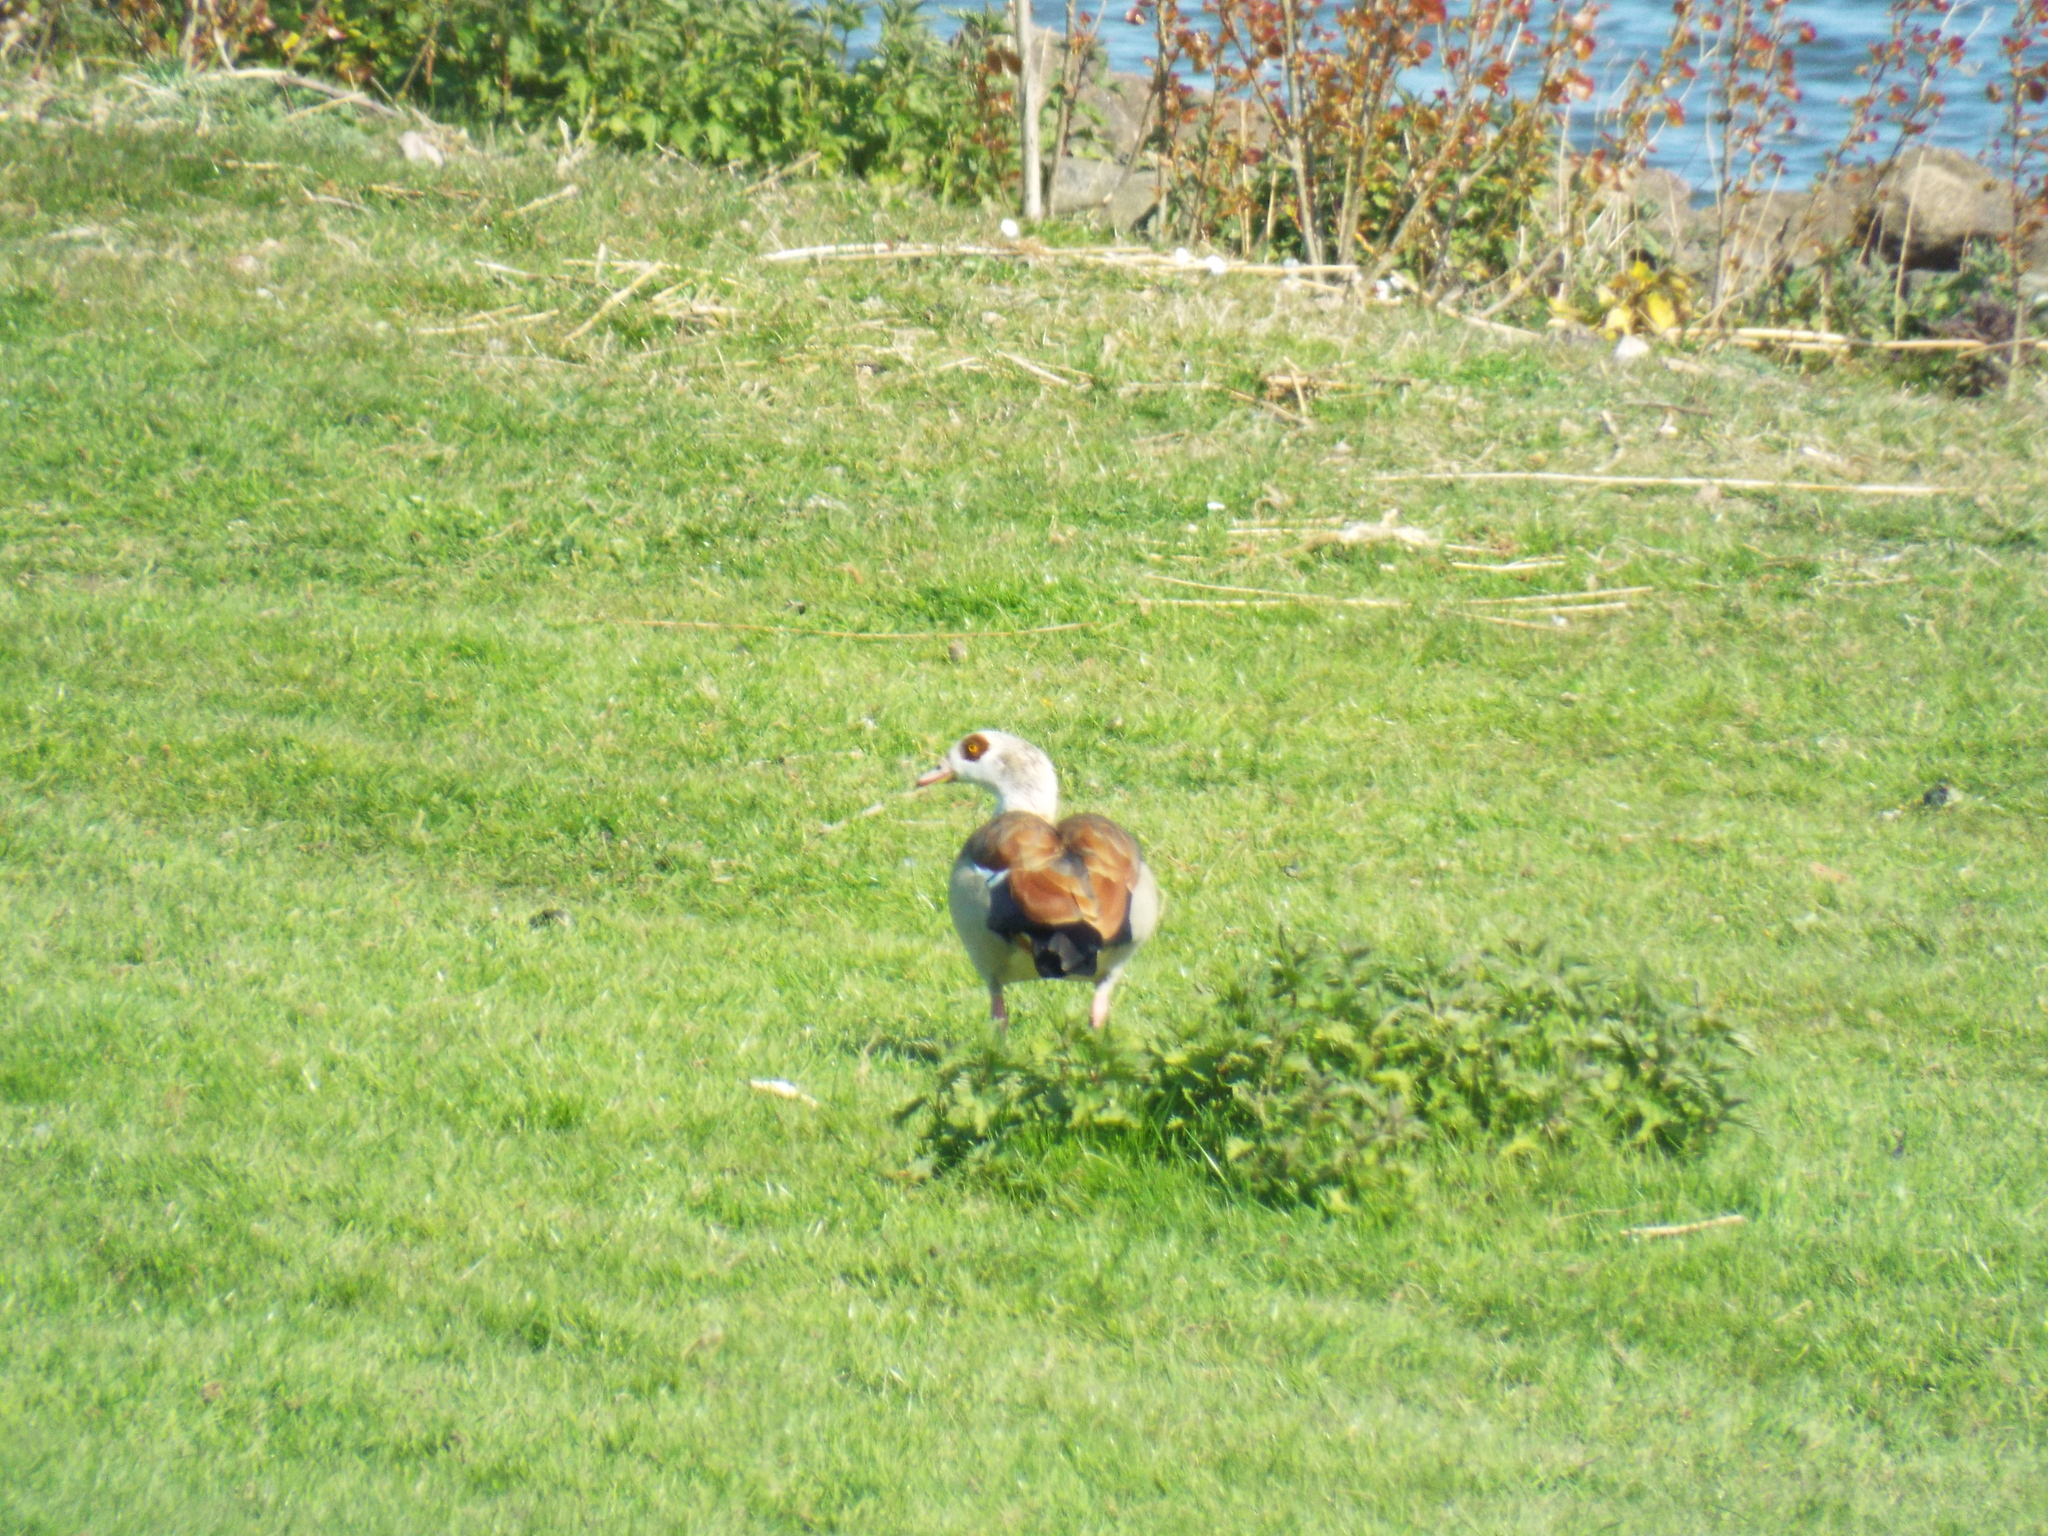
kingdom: Animalia
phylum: Chordata
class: Aves
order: Anseriformes
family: Anatidae
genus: Alopochen
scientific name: Alopochen aegyptiaca
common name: Egyptian goose
